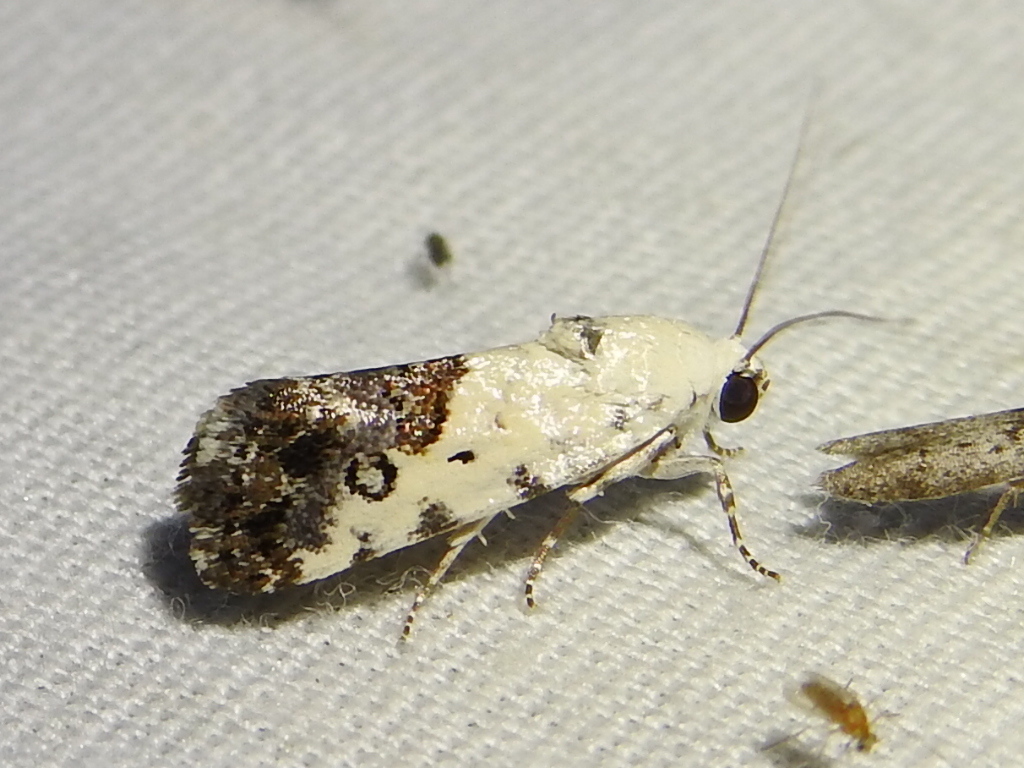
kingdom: Animalia
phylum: Arthropoda
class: Insecta
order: Lepidoptera
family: Noctuidae
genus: Acontia
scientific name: Acontia phecolisca
